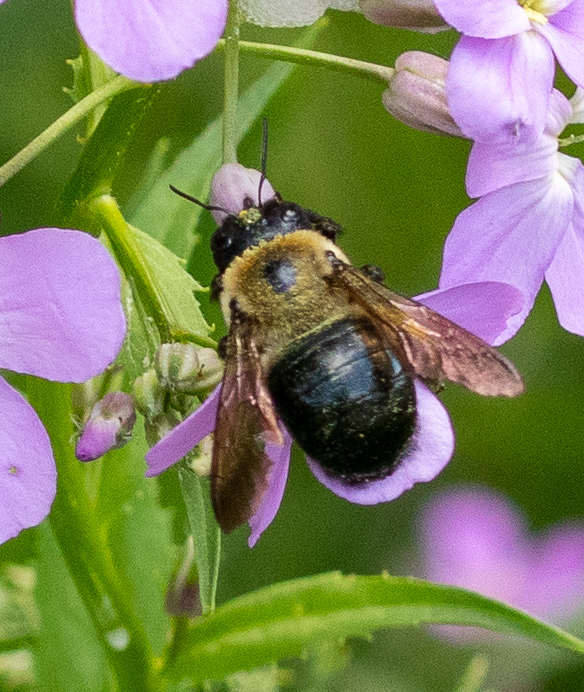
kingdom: Animalia
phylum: Arthropoda
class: Insecta
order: Hymenoptera
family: Apidae
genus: Xylocopa
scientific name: Xylocopa virginica
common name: Carpenter bee
